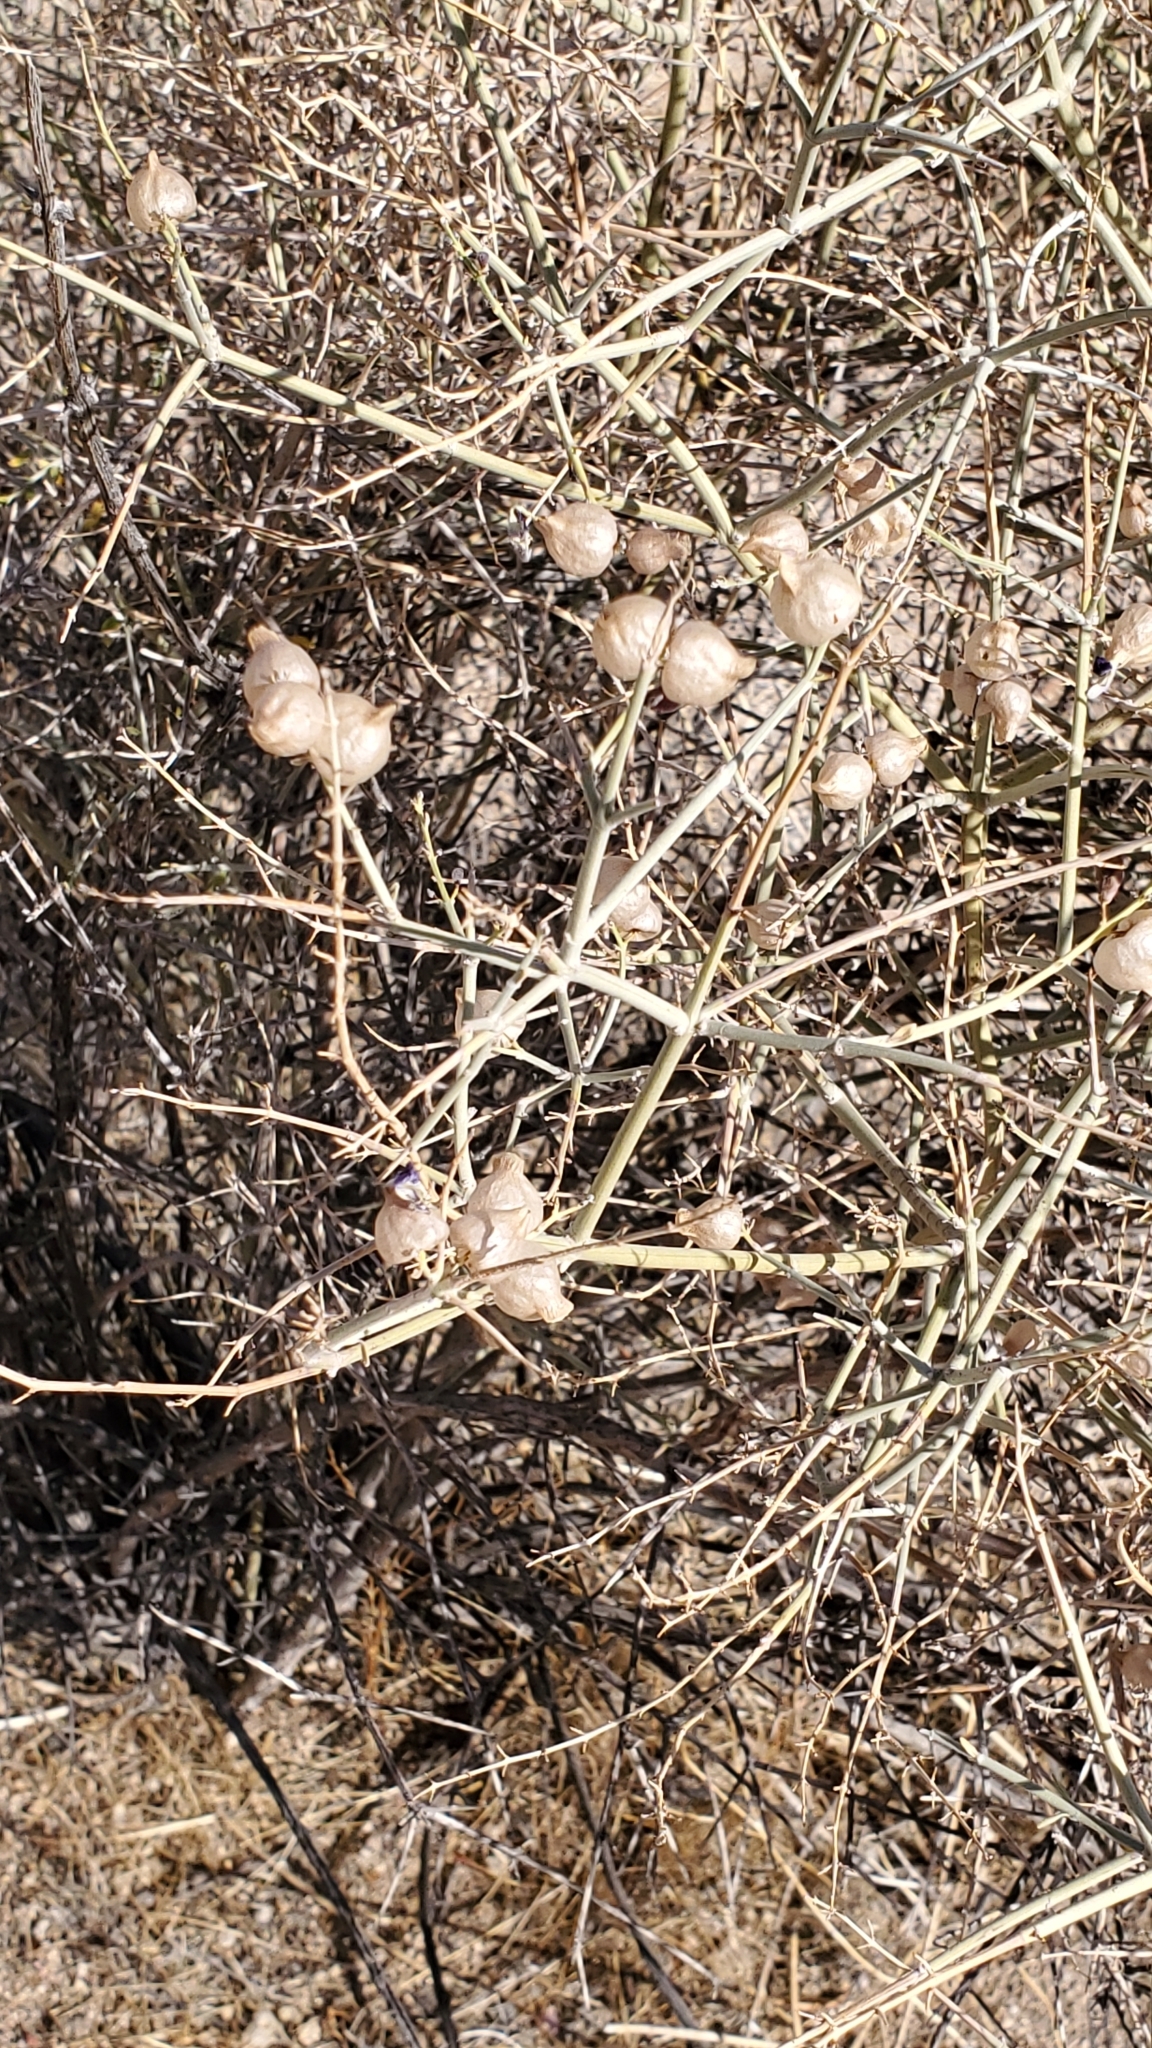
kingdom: Plantae
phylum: Tracheophyta
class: Magnoliopsida
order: Lamiales
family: Lamiaceae
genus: Scutellaria
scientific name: Scutellaria mexicana
